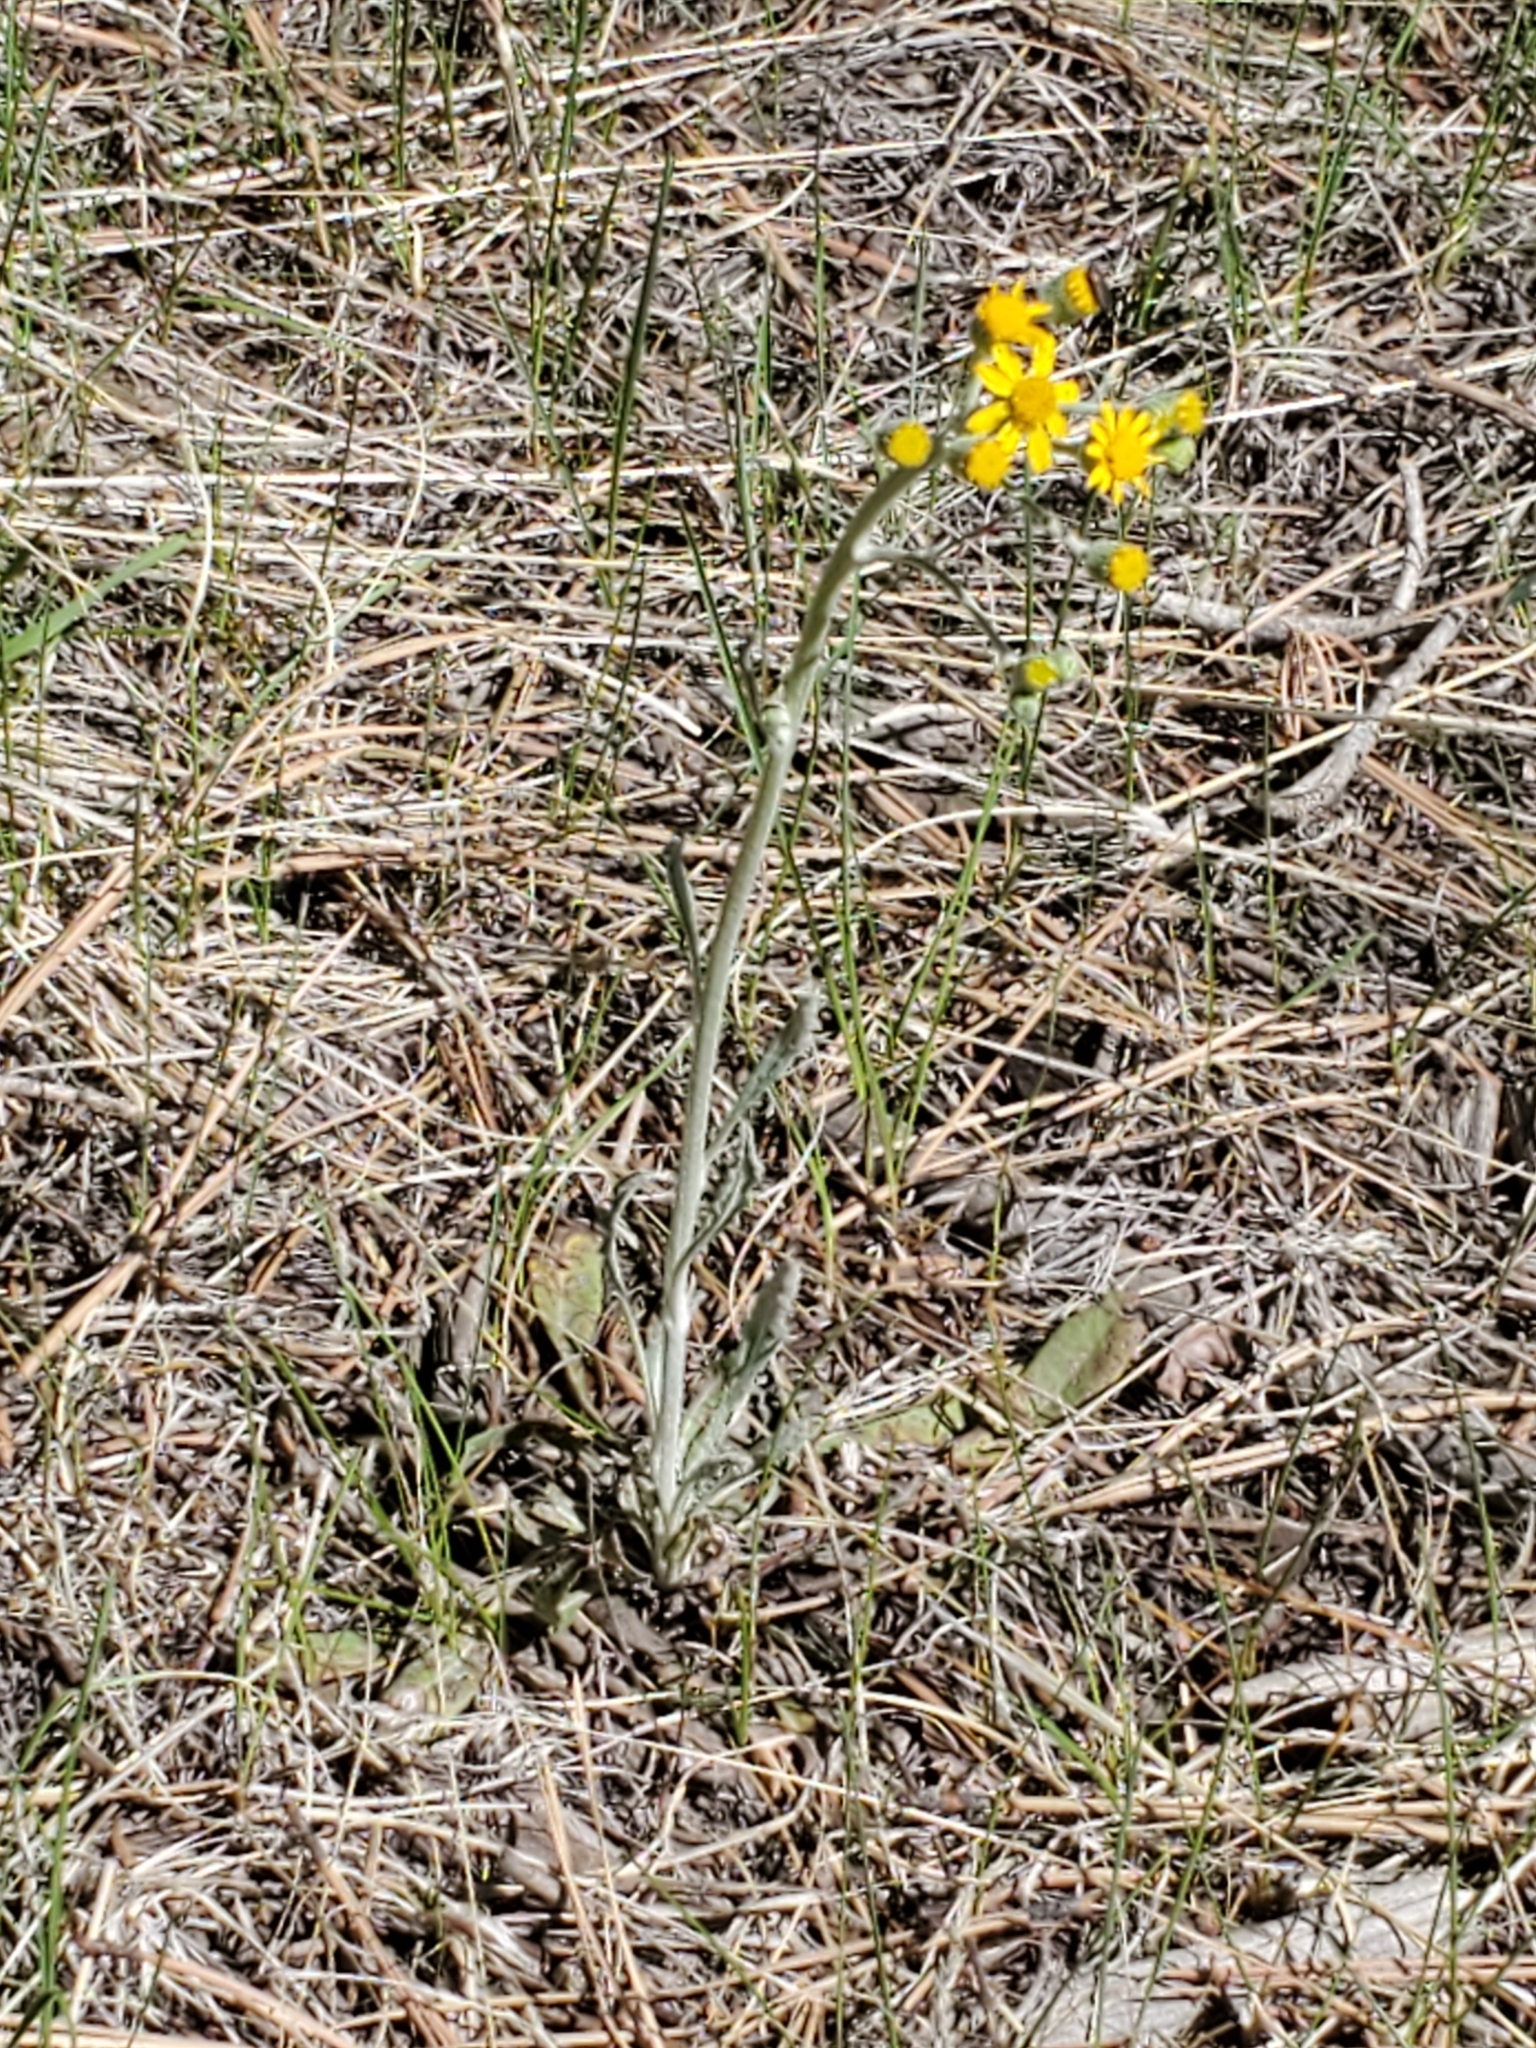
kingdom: Plantae
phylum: Tracheophyta
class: Magnoliopsida
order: Asterales
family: Asteraceae
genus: Packera
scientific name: Packera neomexicana
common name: New mexico butterweed
